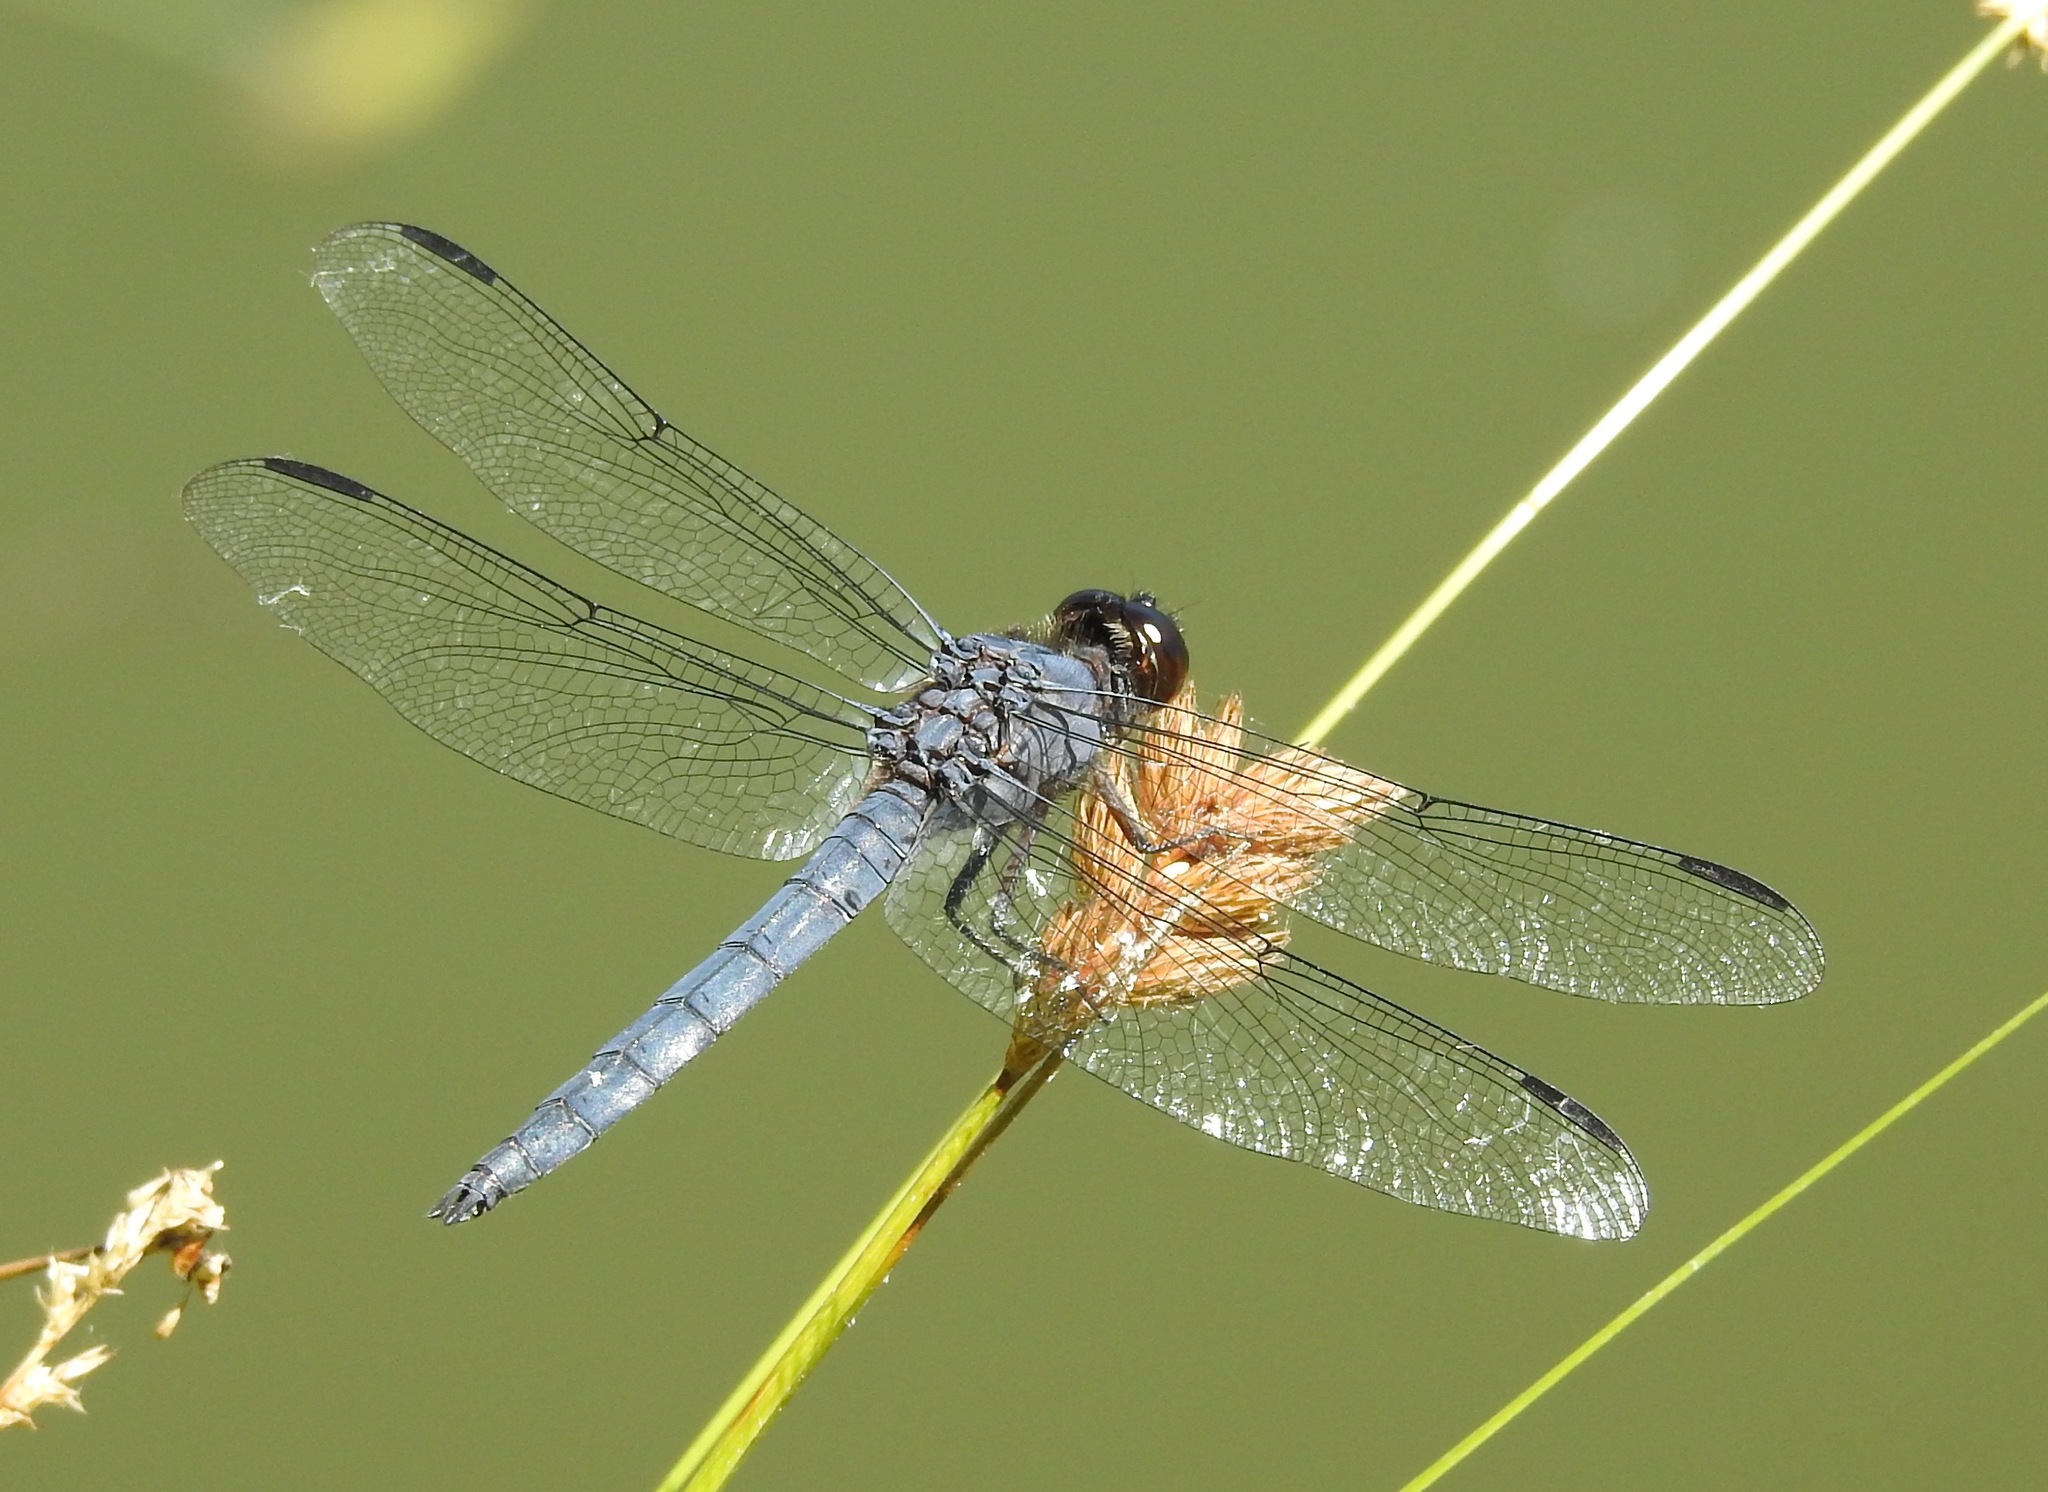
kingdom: Animalia
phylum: Arthropoda
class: Insecta
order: Odonata
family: Libellulidae
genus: Libellula
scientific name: Libellula incesta
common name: Slaty skimmer
